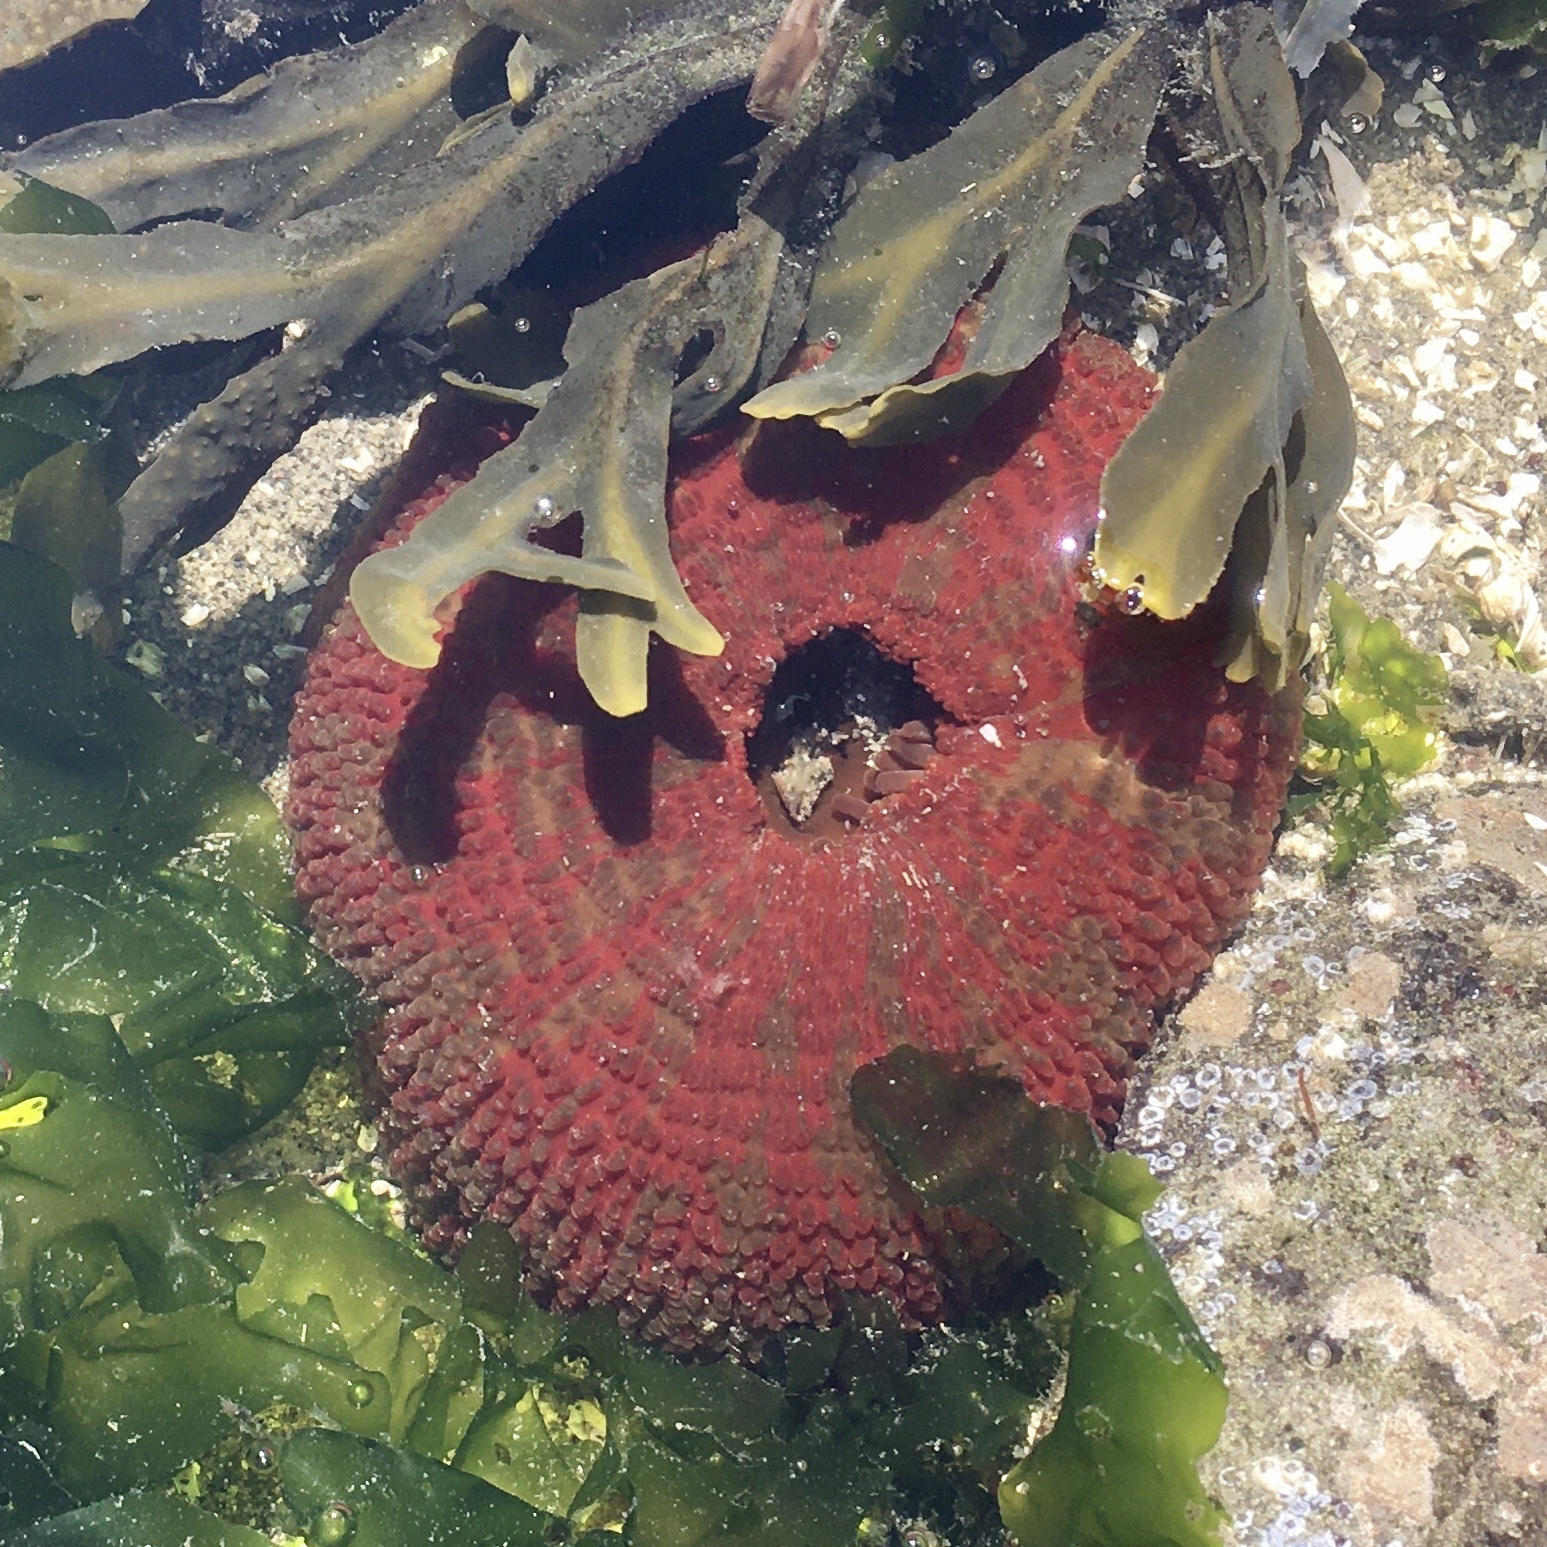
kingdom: Animalia
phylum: Cnidaria
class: Anthozoa
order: Actiniaria
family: Actiniidae
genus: Urticina
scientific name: Urticina grebelnyi
